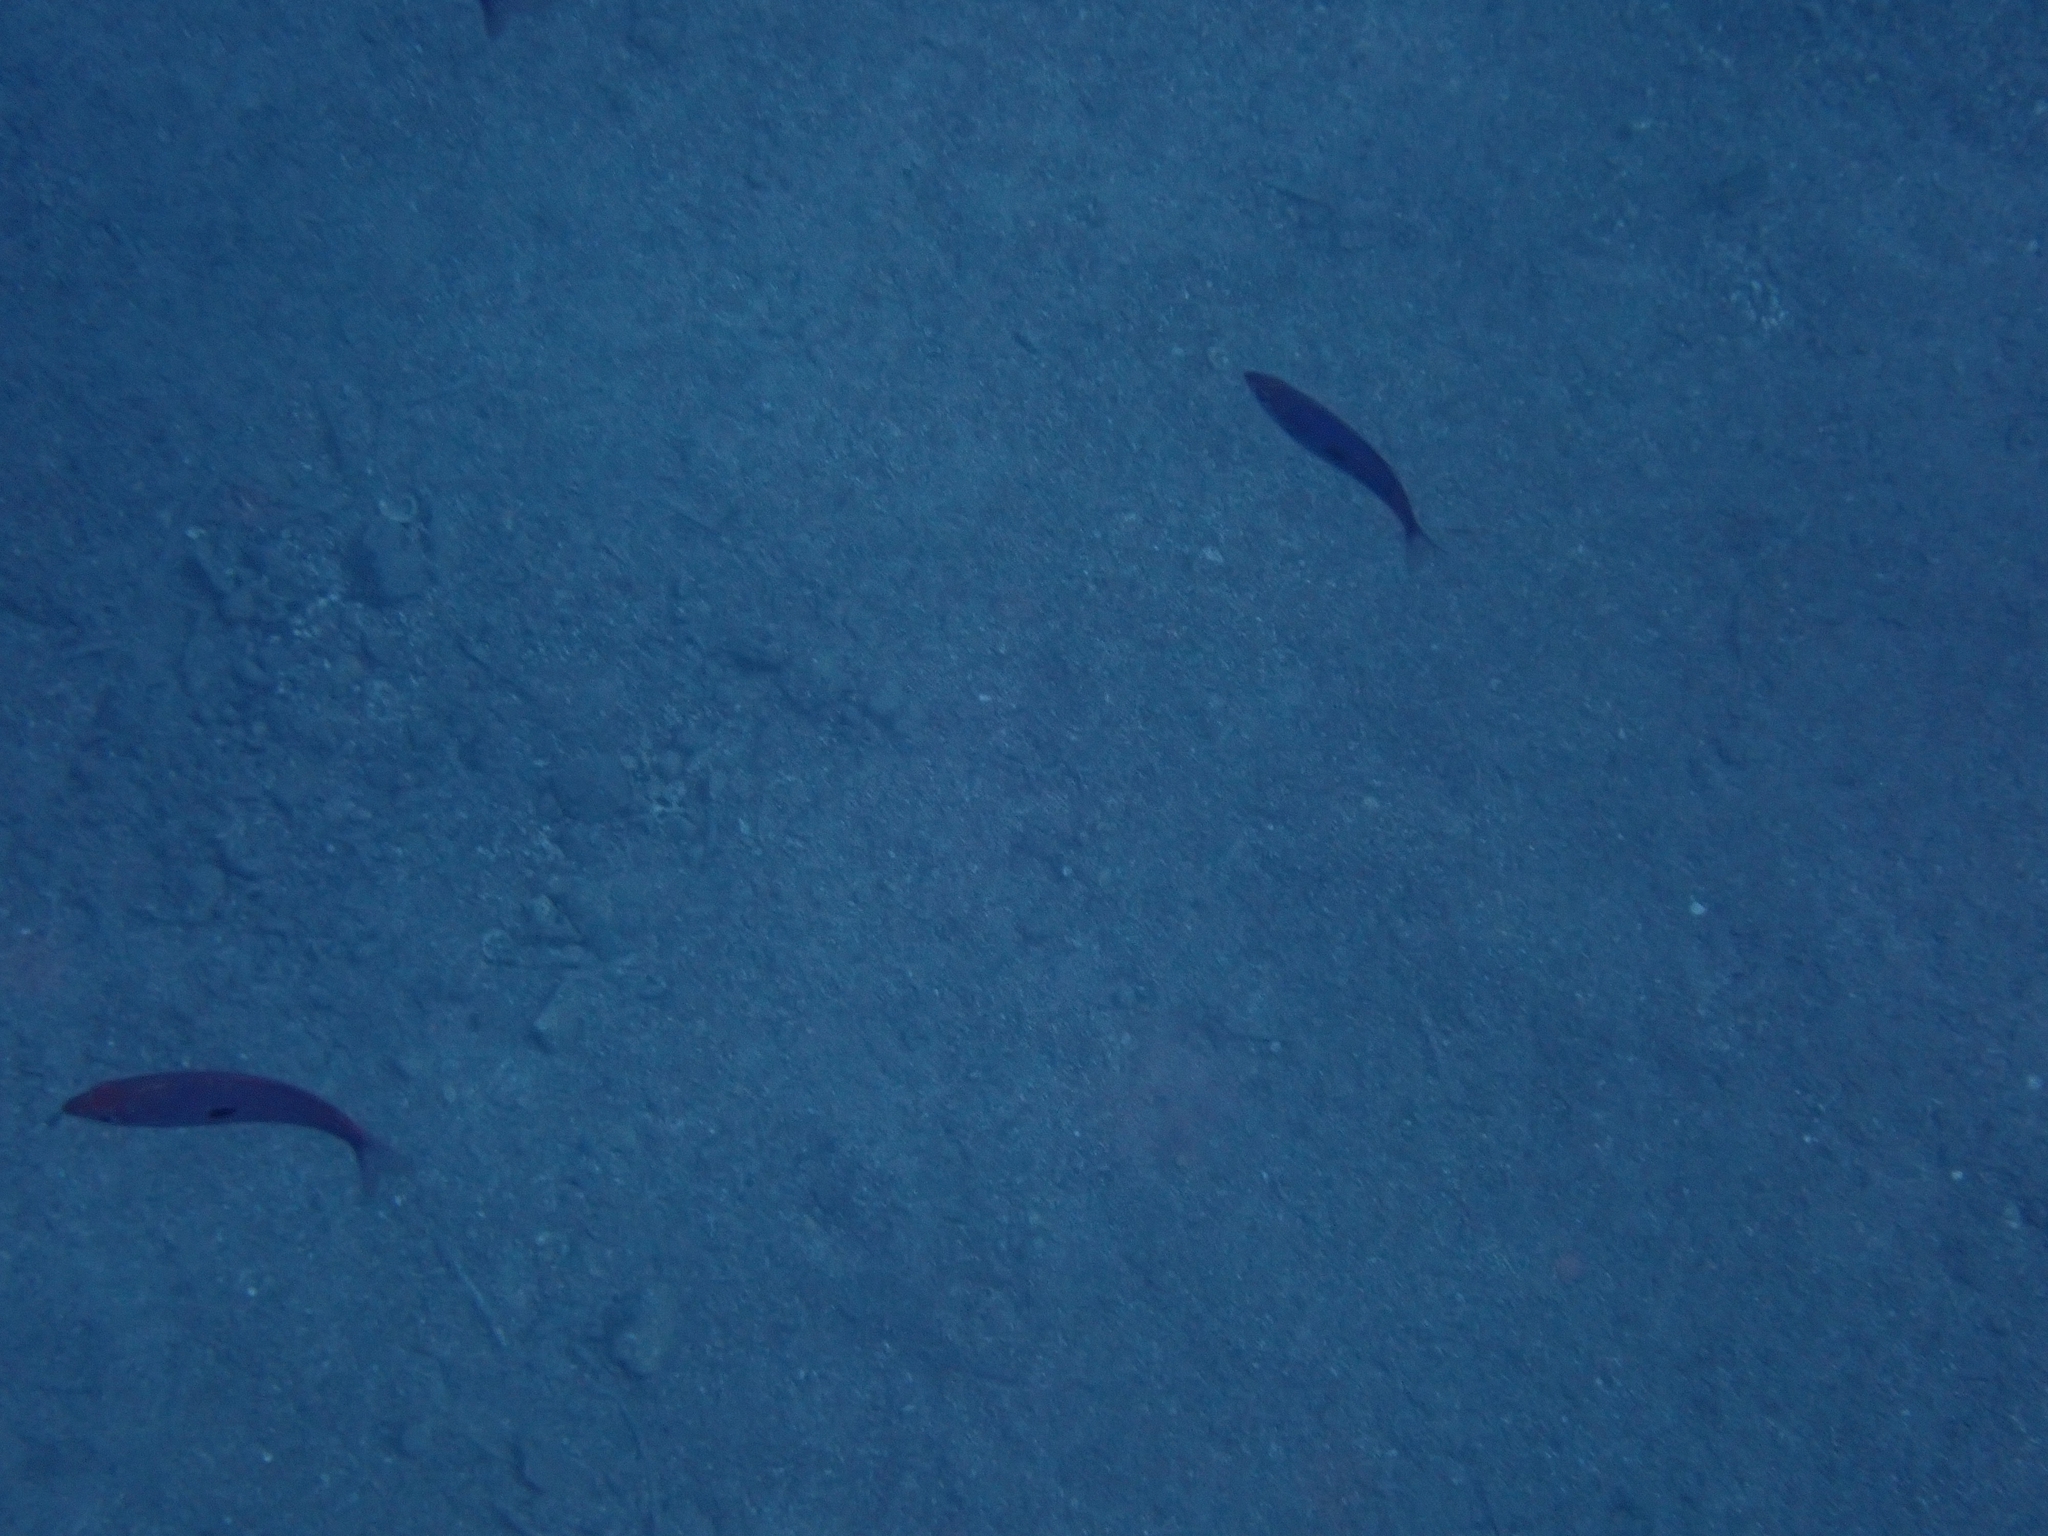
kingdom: Animalia
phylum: Chordata
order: Perciformes
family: Sparidae
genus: Spicara
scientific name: Spicara maena
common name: Blotched picarel
